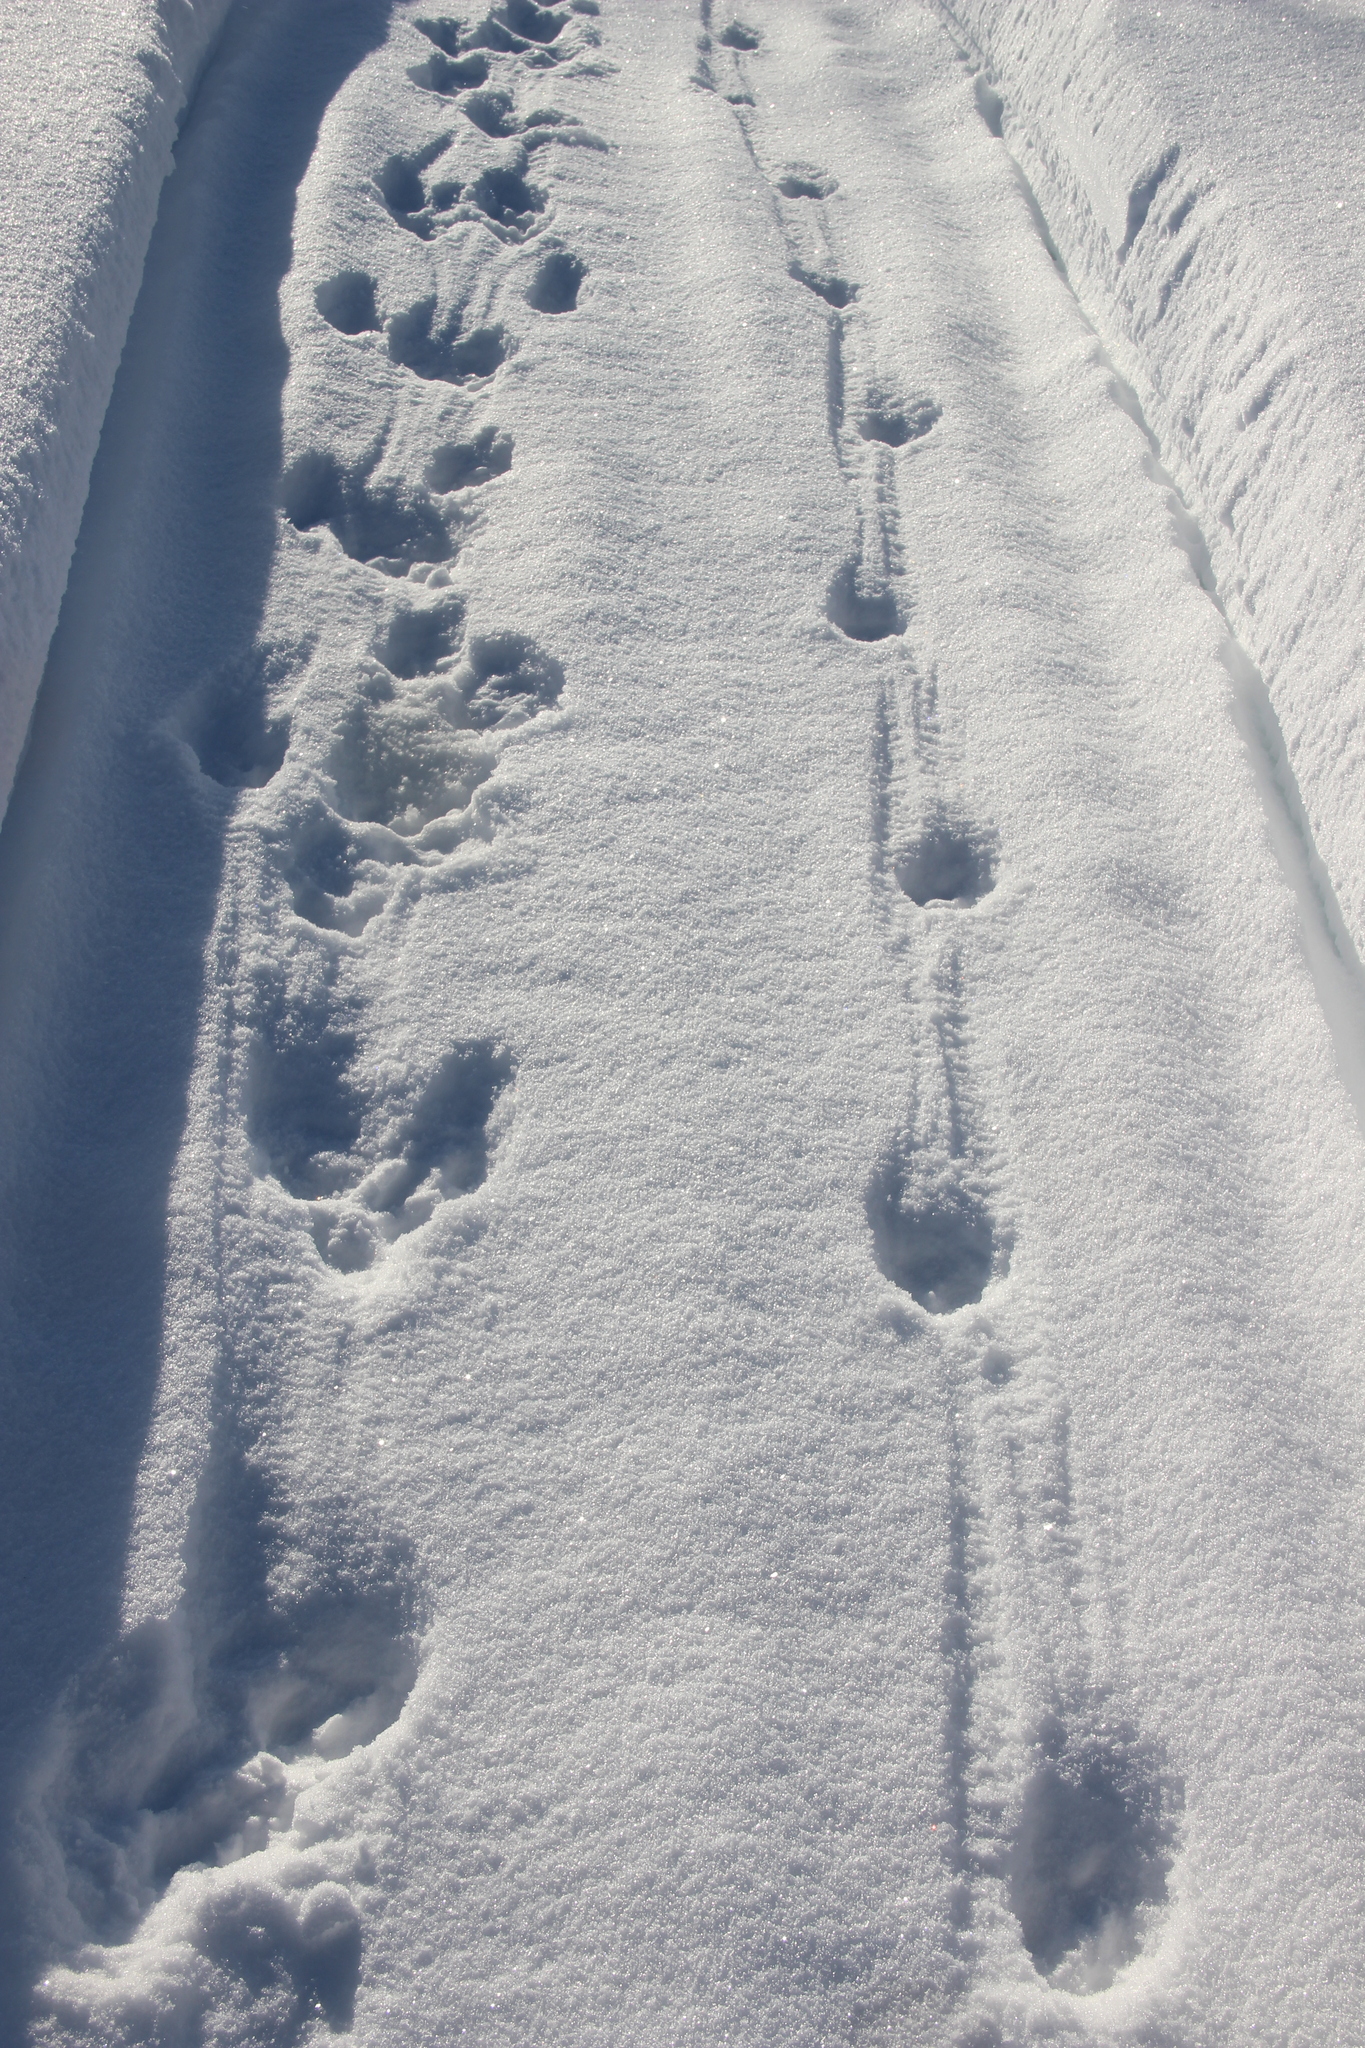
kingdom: Animalia
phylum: Chordata
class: Mammalia
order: Carnivora
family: Canidae
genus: Canis
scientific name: Canis lupus
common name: Gray wolf
